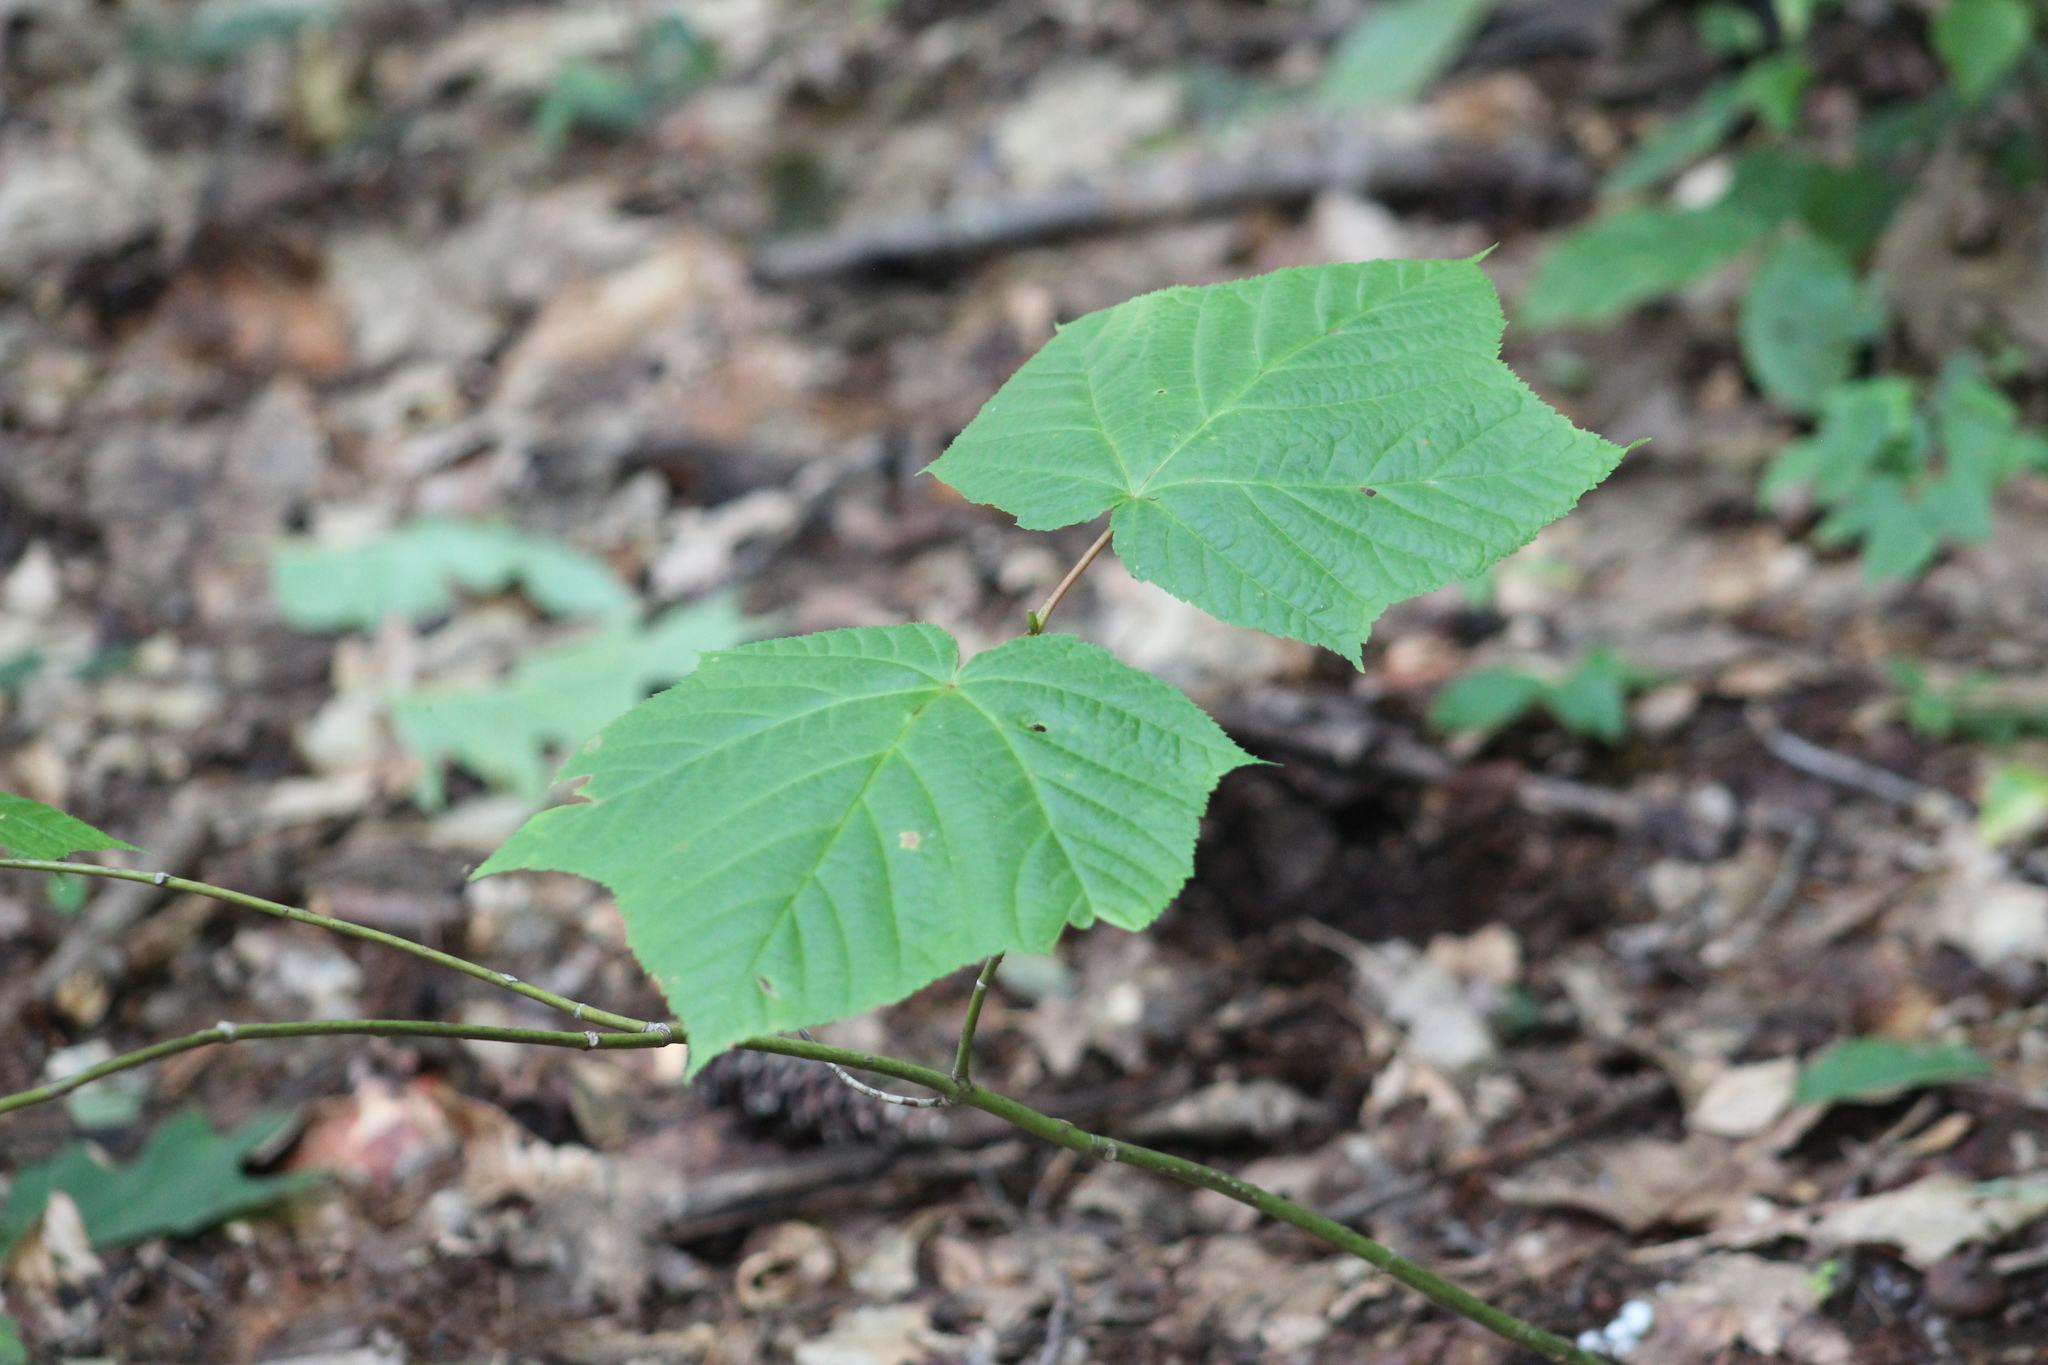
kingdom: Plantae
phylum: Tracheophyta
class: Magnoliopsida
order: Sapindales
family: Sapindaceae
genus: Acer
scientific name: Acer pensylvanicum
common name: Moosewood
